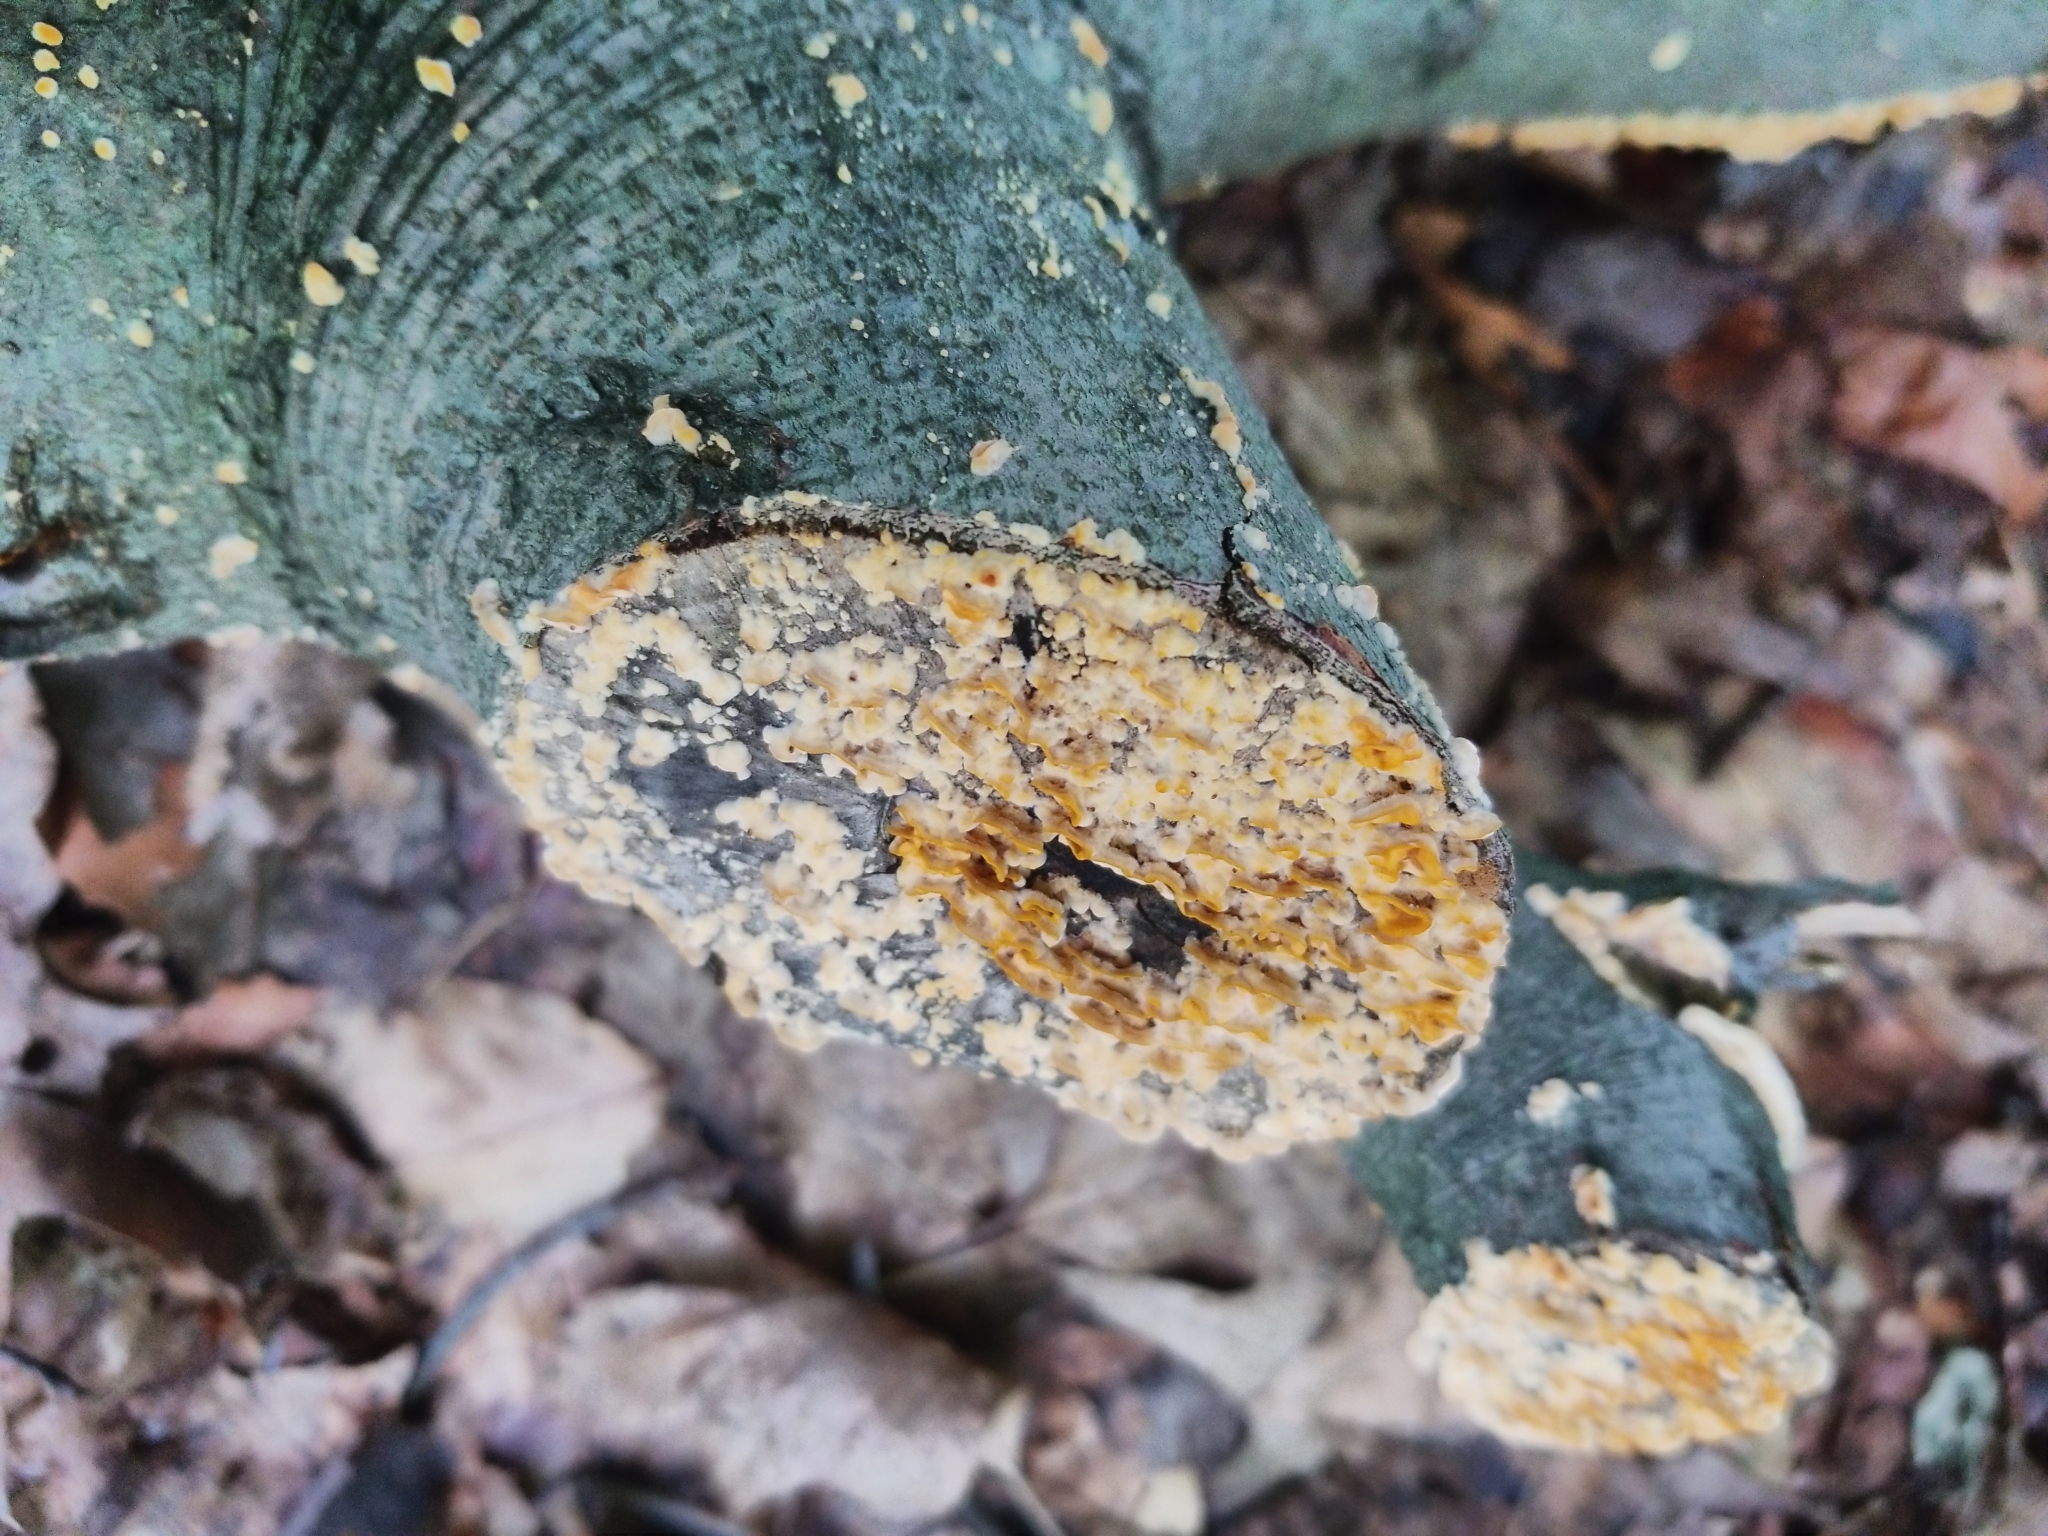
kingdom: Fungi
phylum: Basidiomycota
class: Agaricomycetes
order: Russulales
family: Stereaceae
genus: Stereum
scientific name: Stereum complicatum
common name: Crowded parchment
